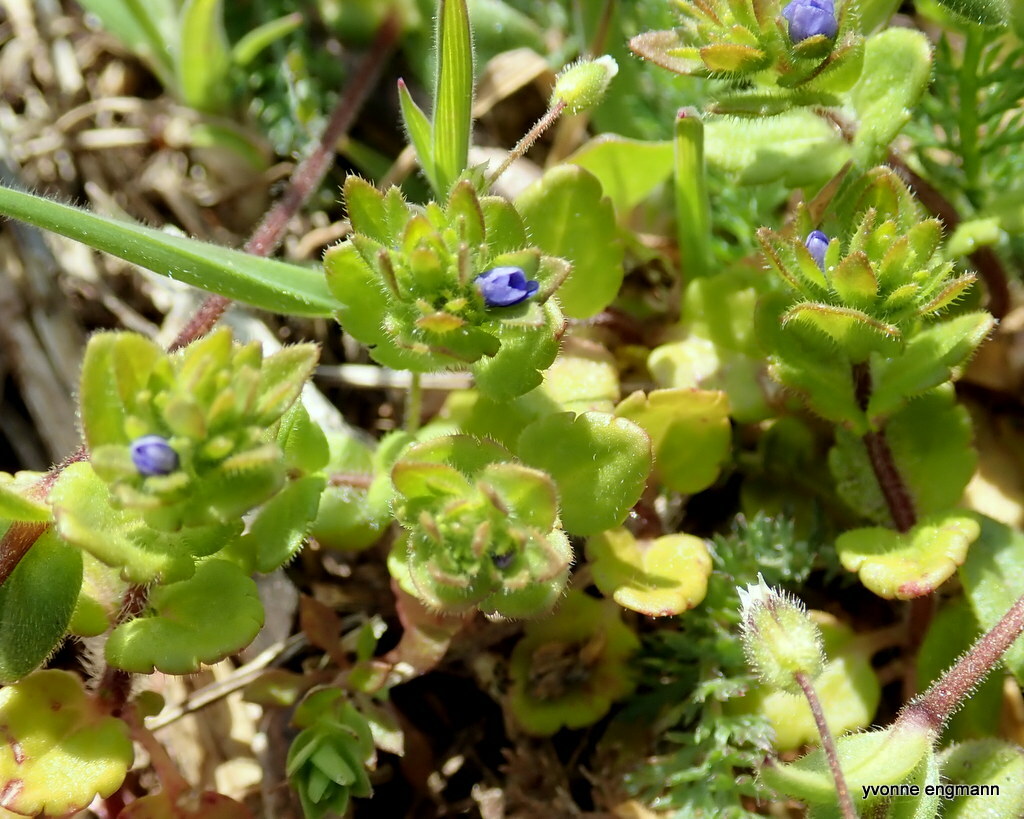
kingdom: Plantae
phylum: Tracheophyta
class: Magnoliopsida
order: Lamiales
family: Plantaginaceae
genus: Veronica
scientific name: Veronica arvensis
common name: Corn speedwell
